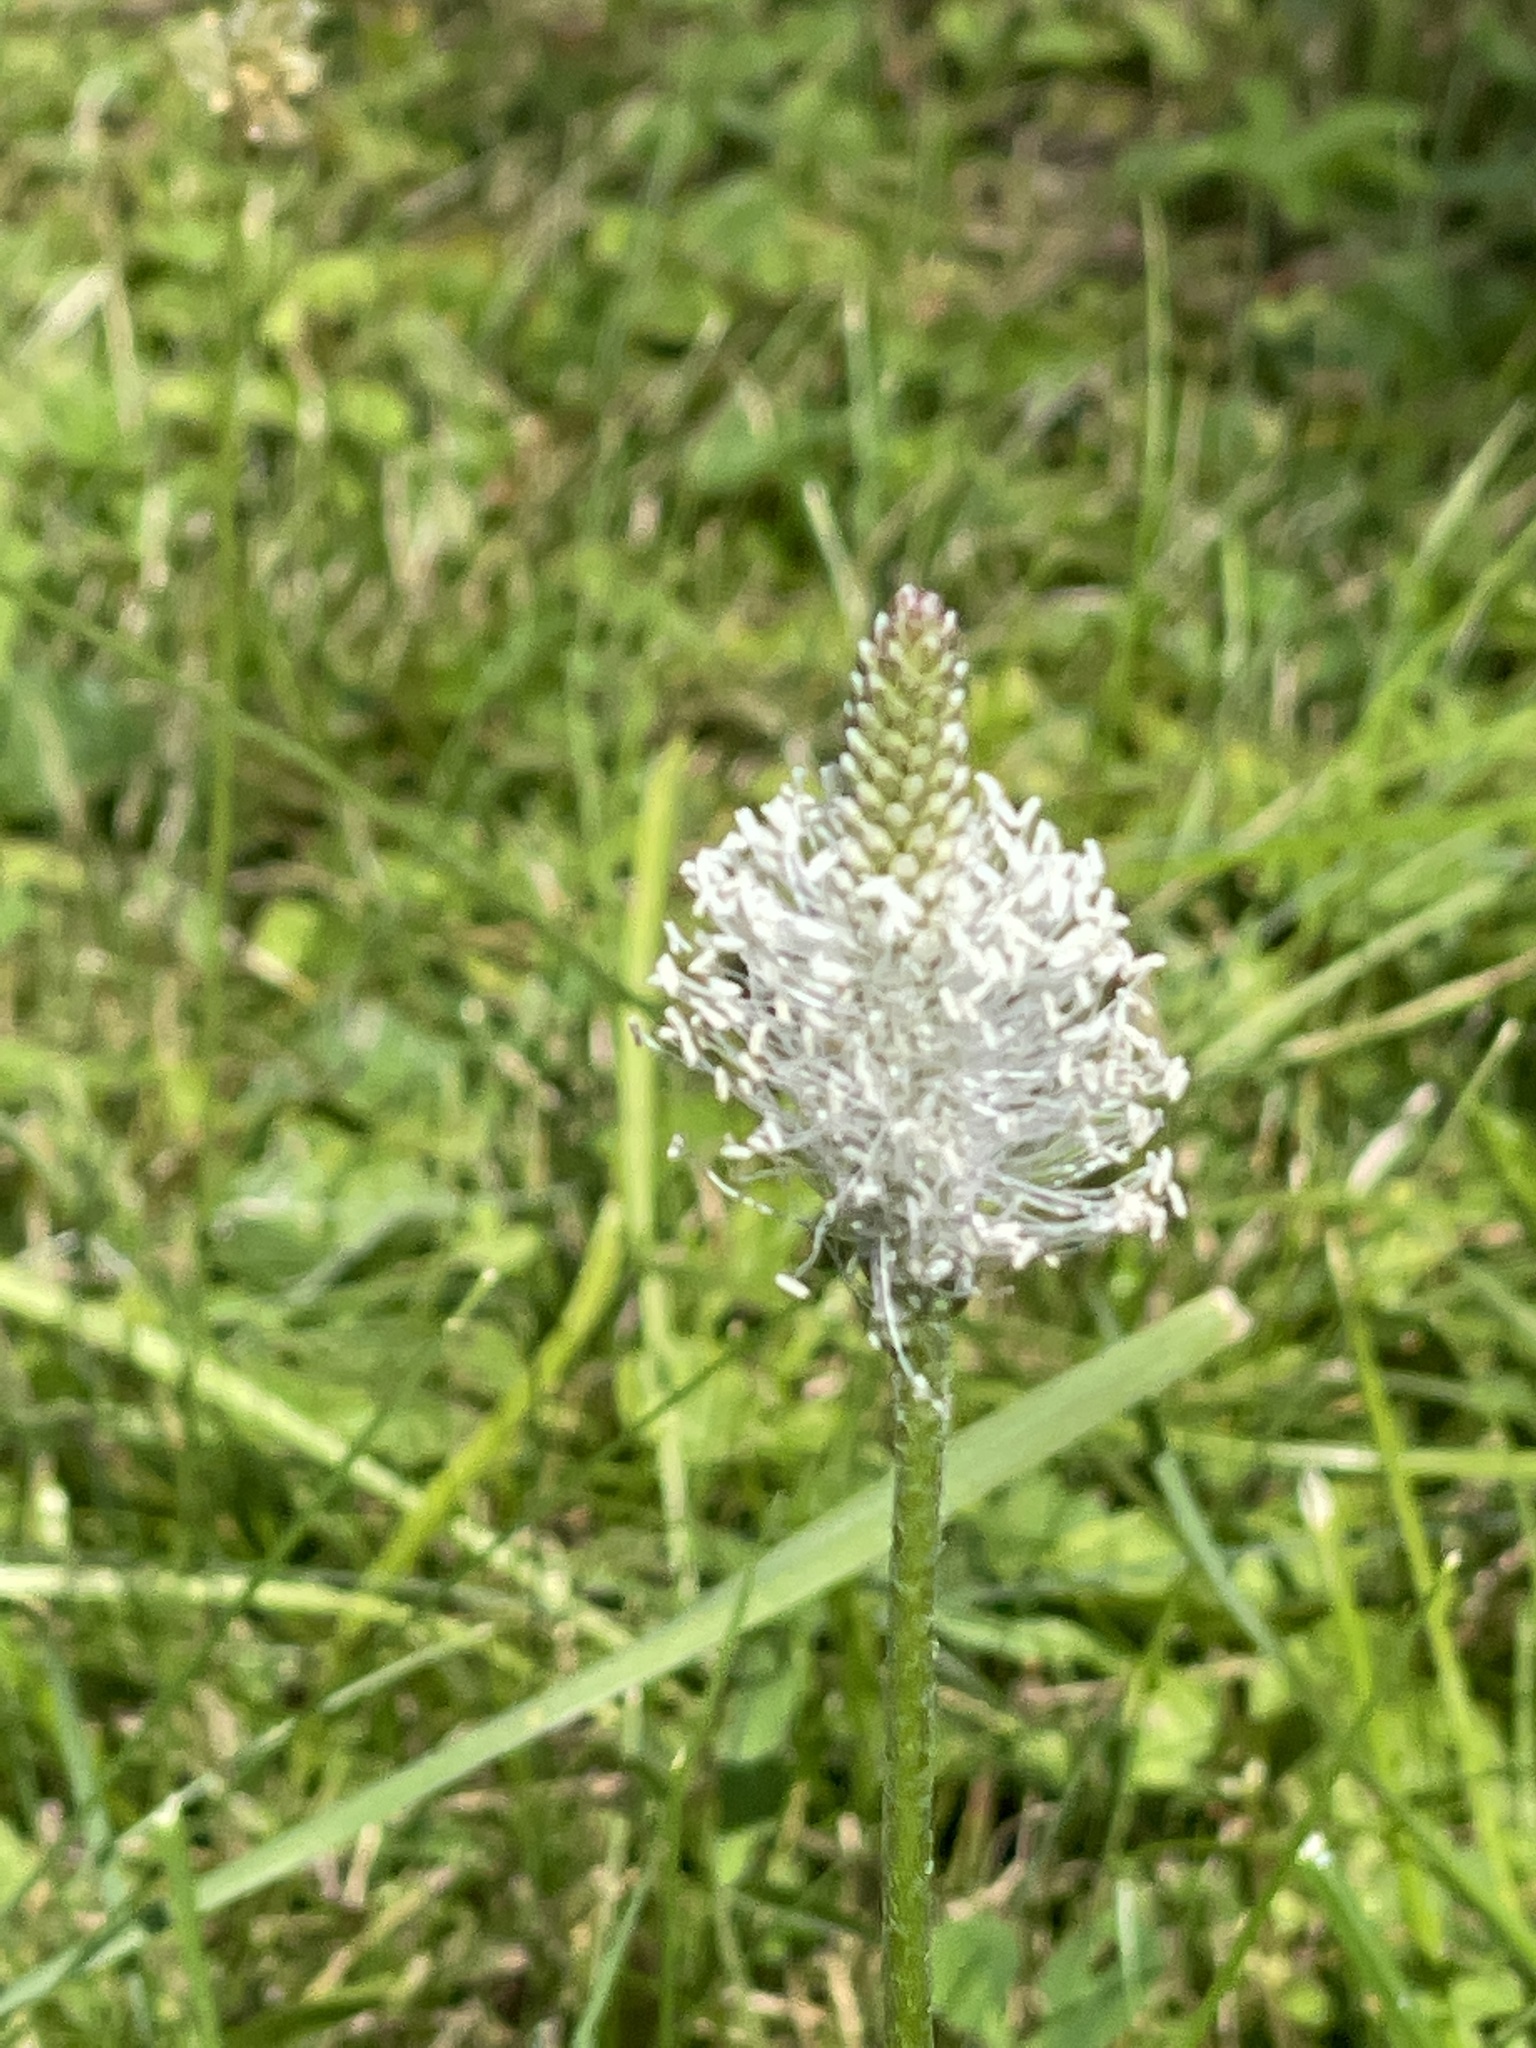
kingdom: Plantae
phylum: Tracheophyta
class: Magnoliopsida
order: Lamiales
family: Plantaginaceae
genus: Plantago
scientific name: Plantago media
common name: Hoary plantain
